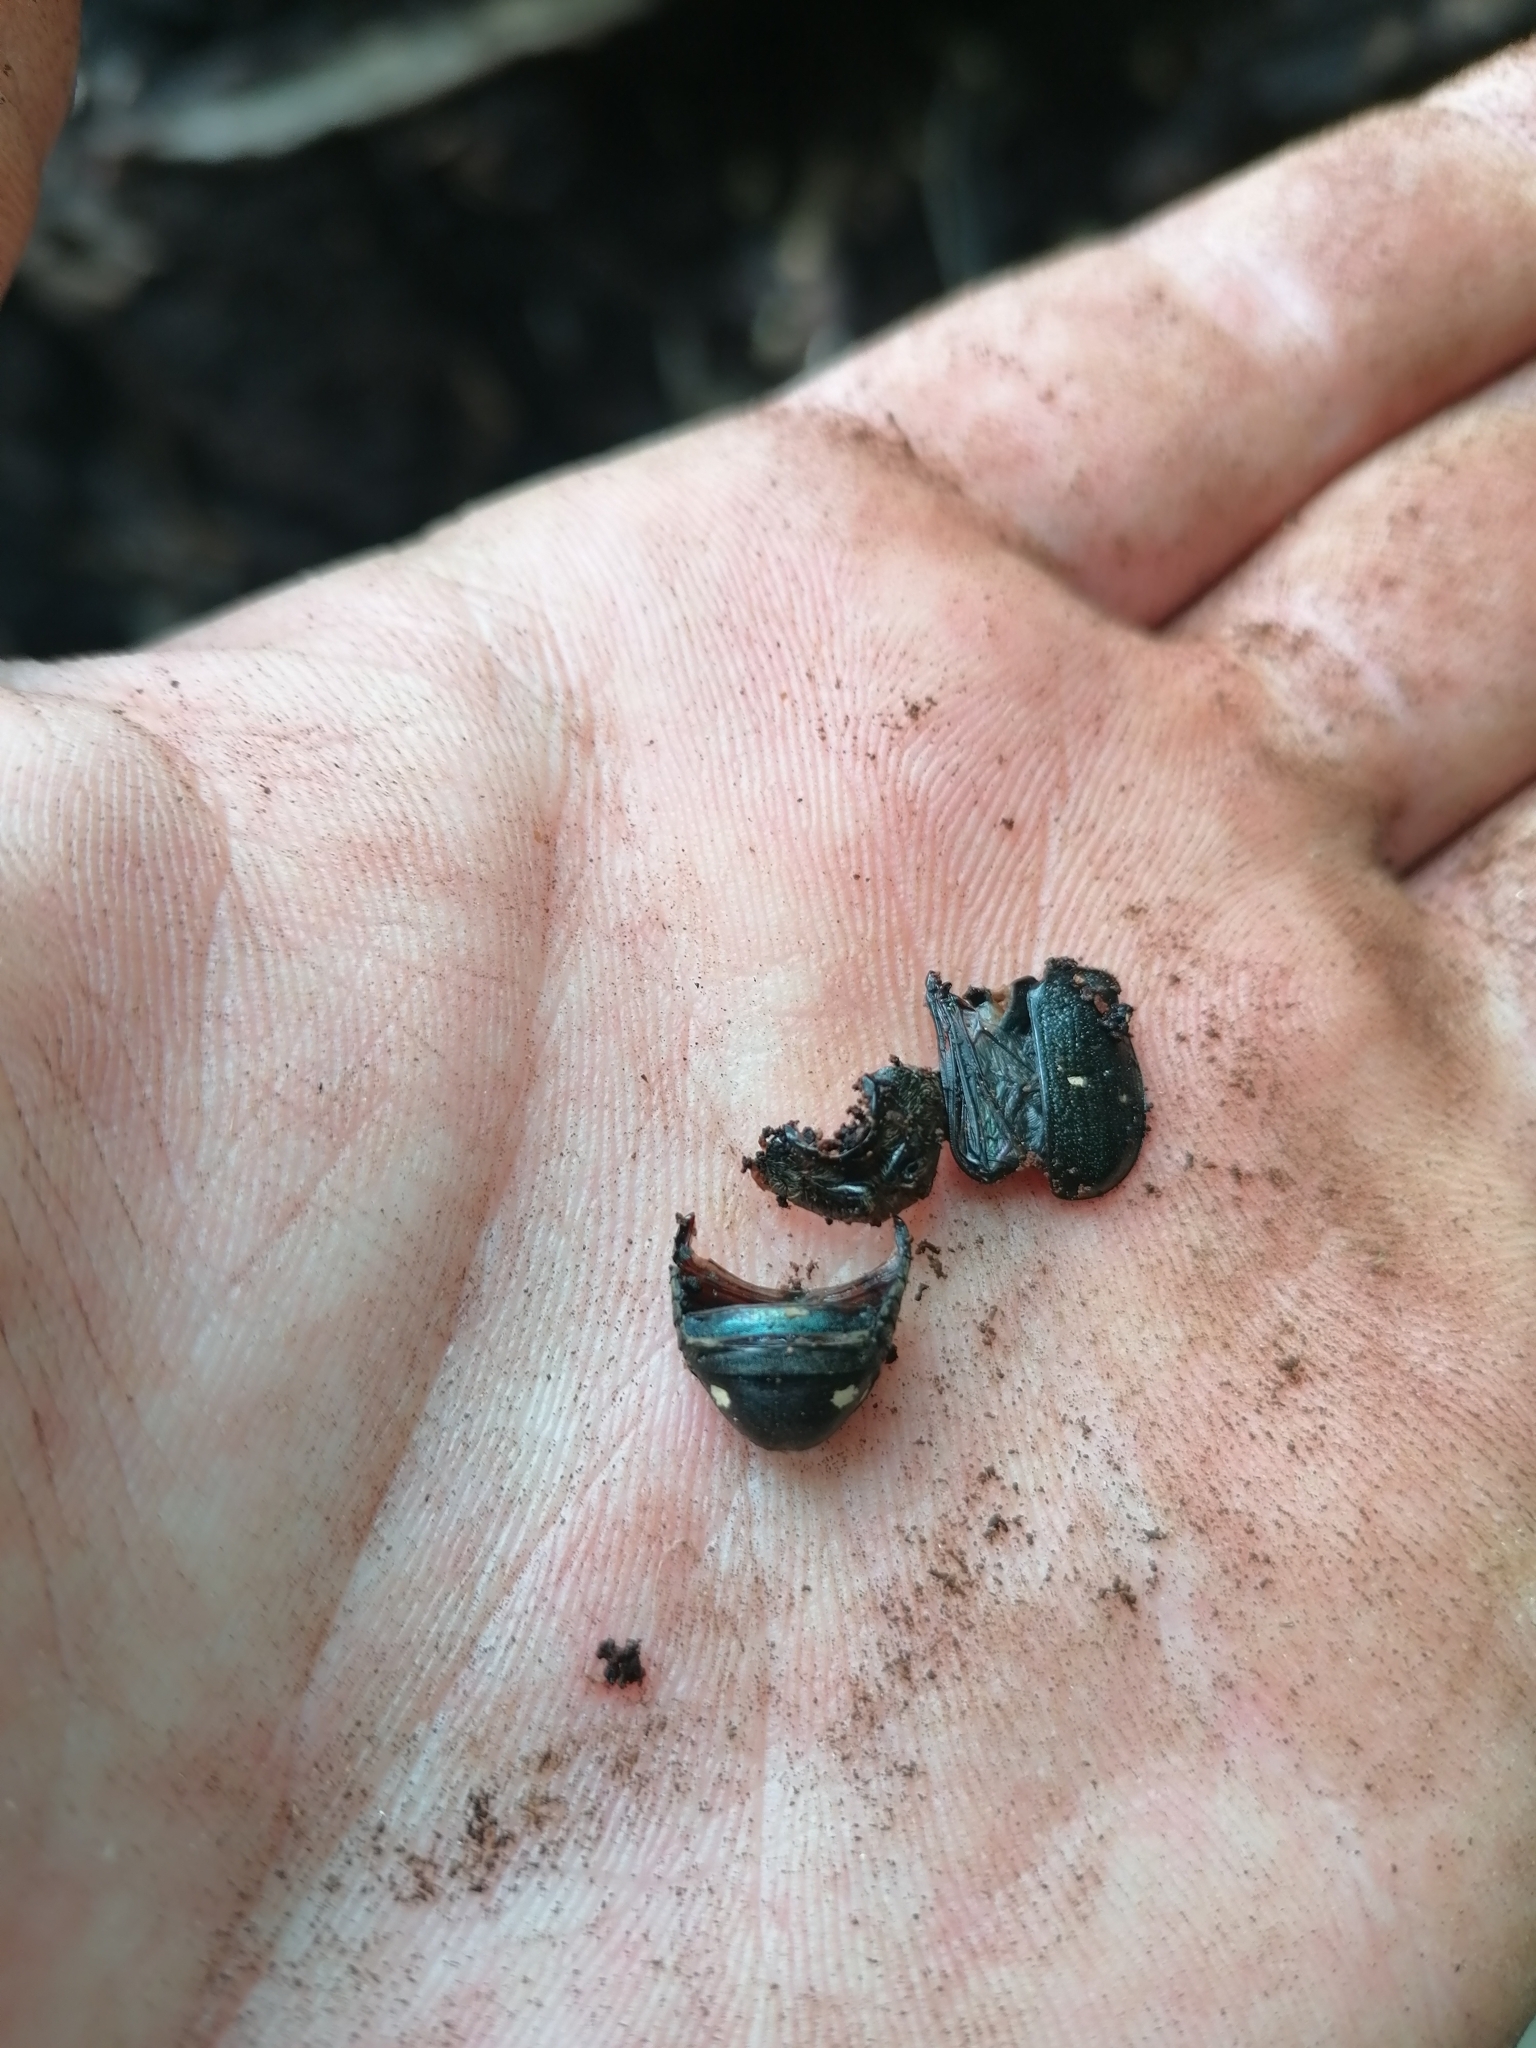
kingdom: Animalia
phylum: Arthropoda
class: Insecta
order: Coleoptera
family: Scarabaeidae
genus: Gnorimus
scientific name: Gnorimus variabilis
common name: Variable chafer
